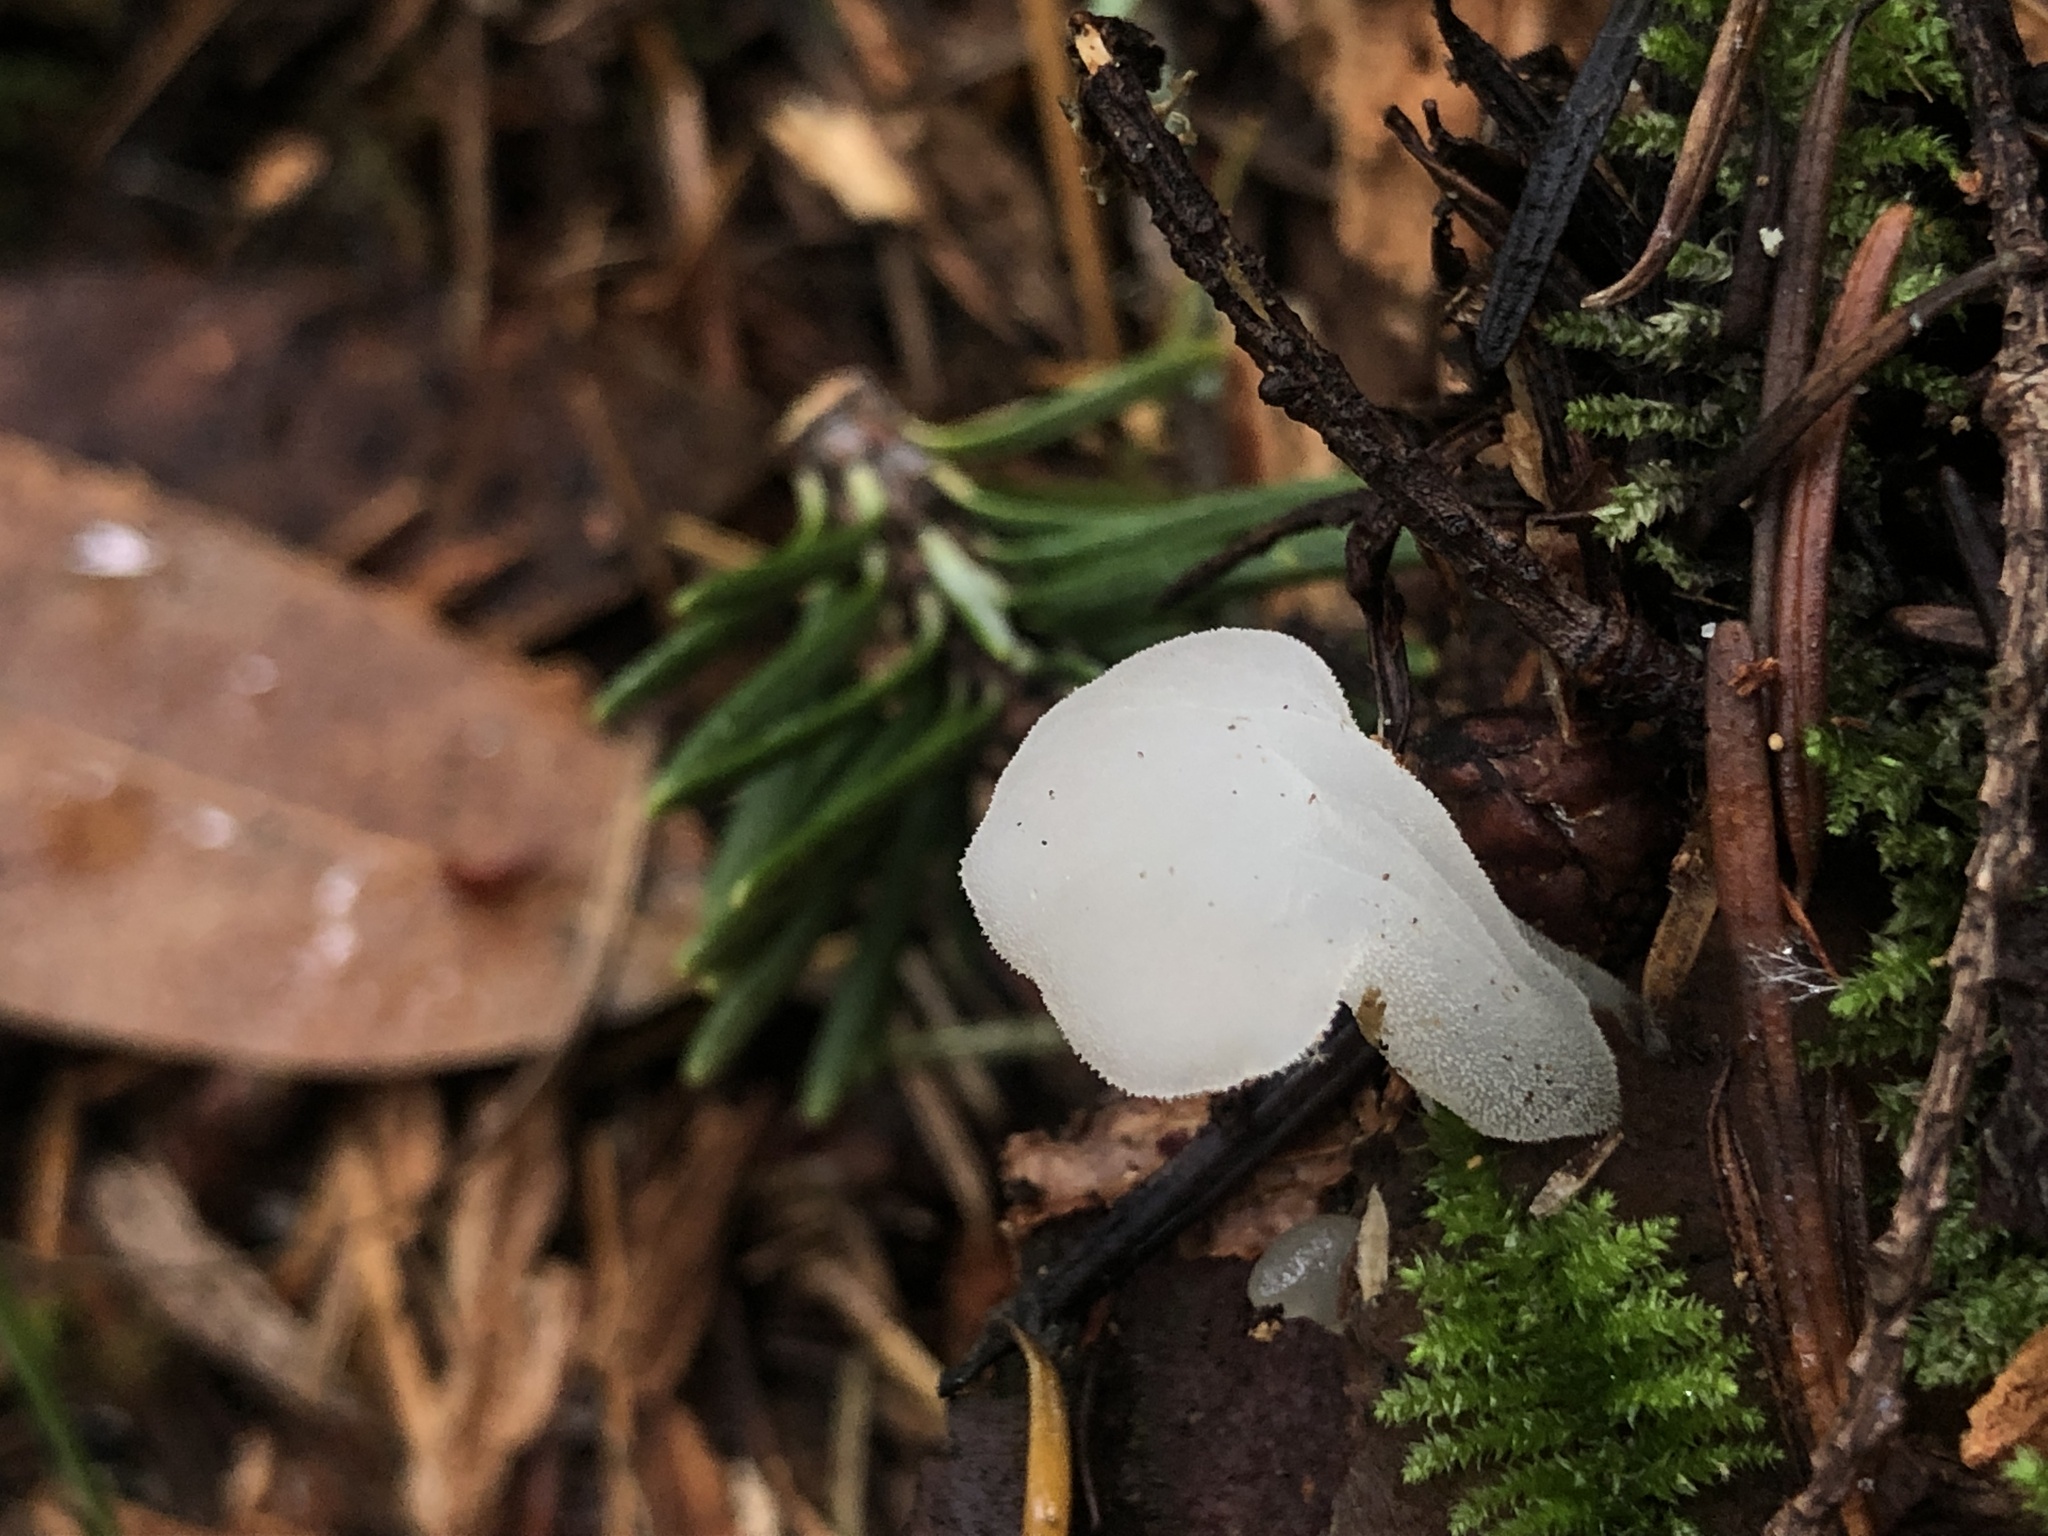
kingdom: Fungi
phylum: Basidiomycota
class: Agaricomycetes
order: Auriculariales
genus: Pseudohydnum
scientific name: Pseudohydnum gelatinosum
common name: Jelly tongue
